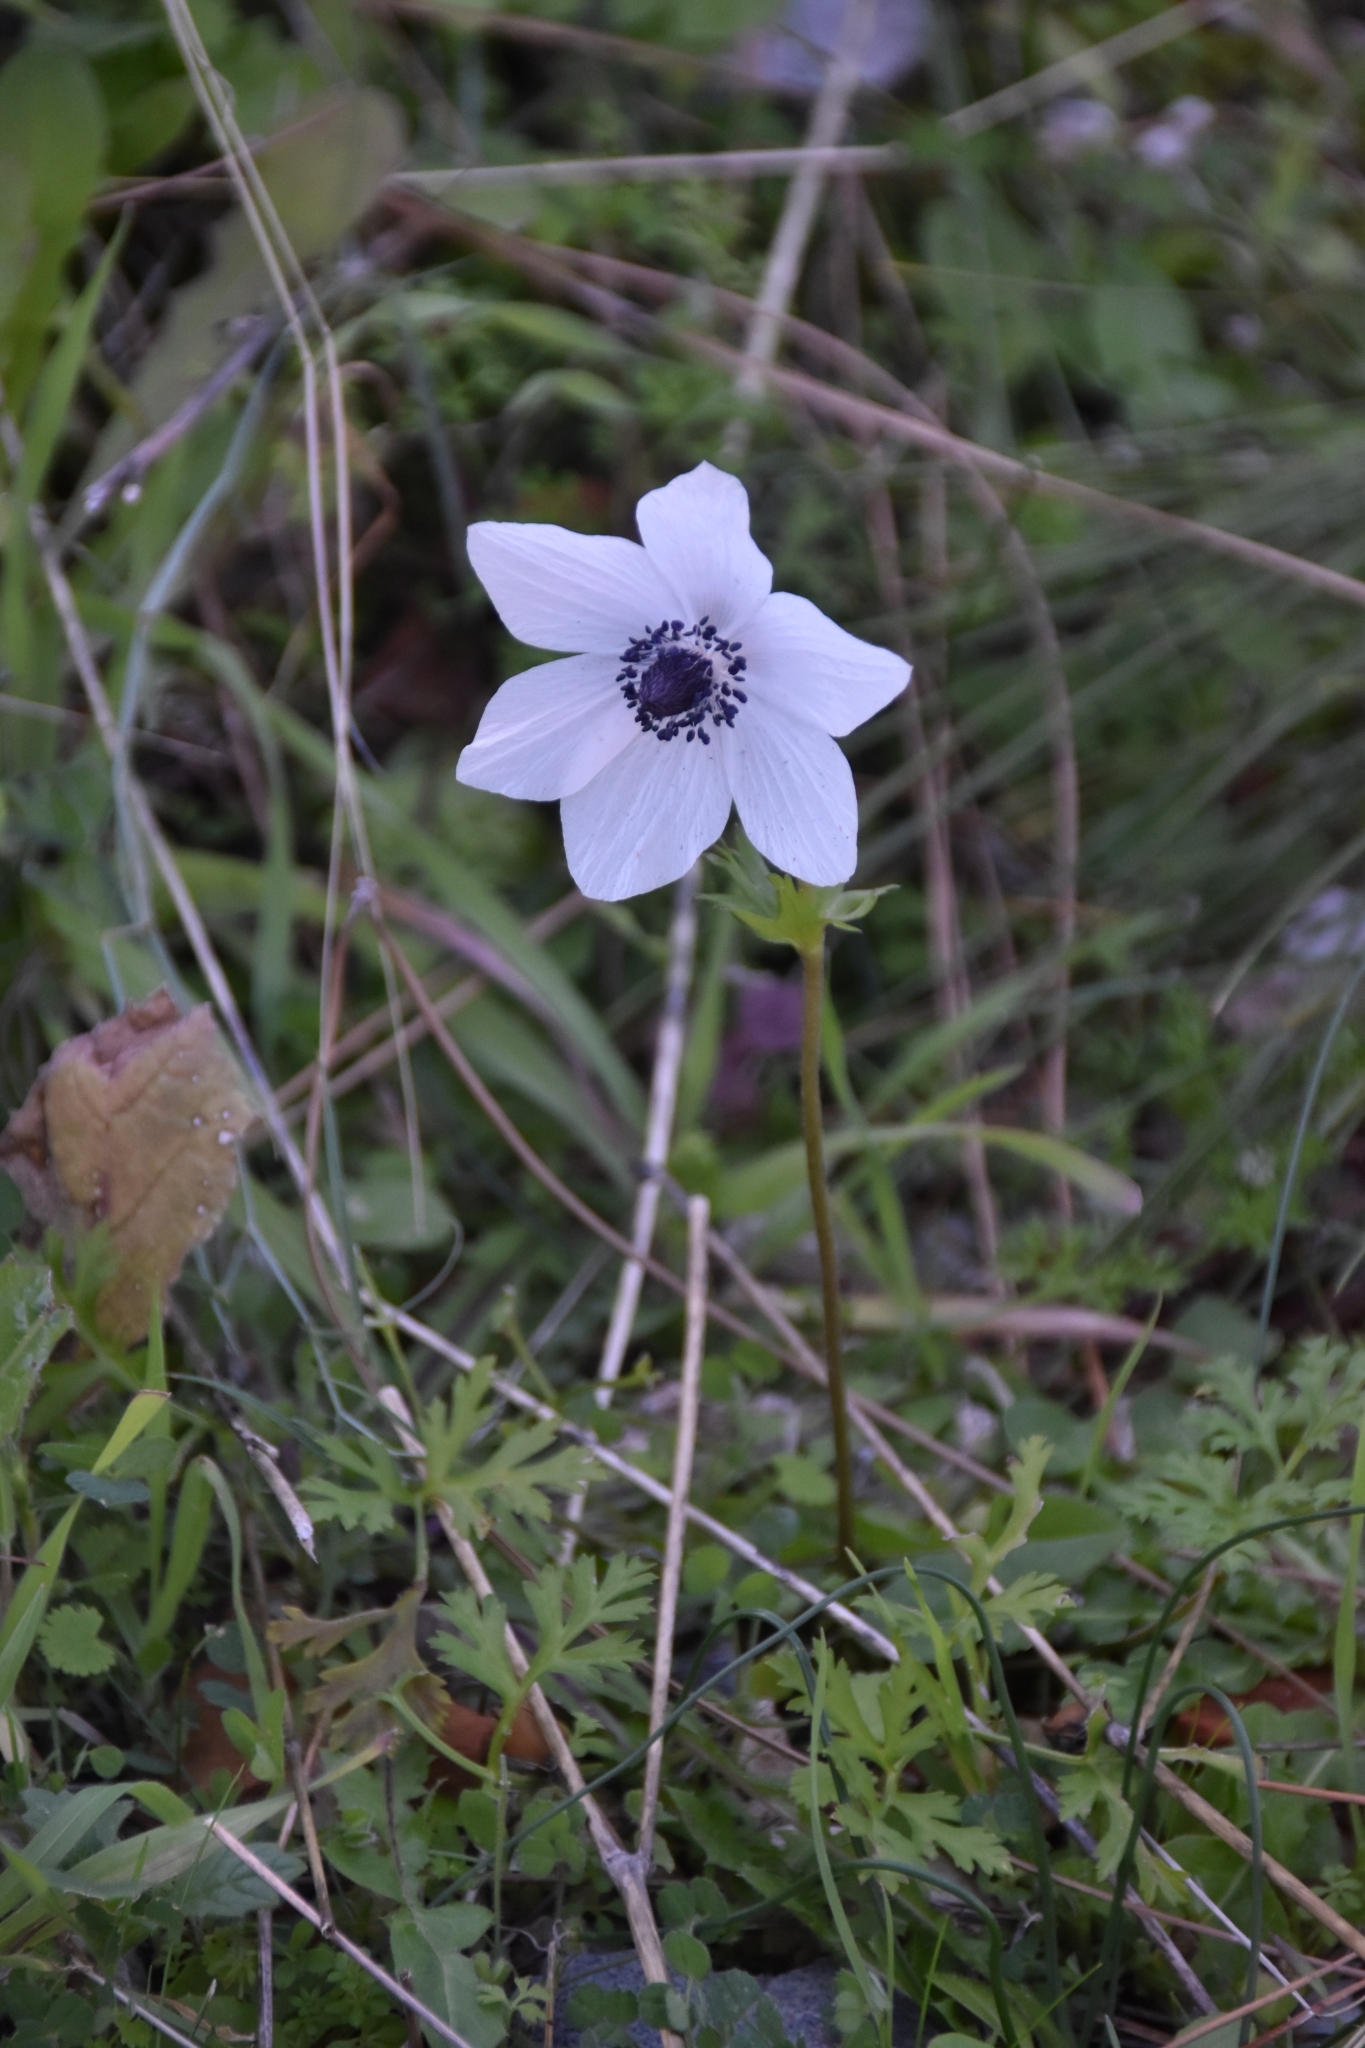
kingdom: Plantae
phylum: Tracheophyta
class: Magnoliopsida
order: Ranunculales
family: Ranunculaceae
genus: Anemone
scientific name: Anemone coronaria
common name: Poppy anemone
